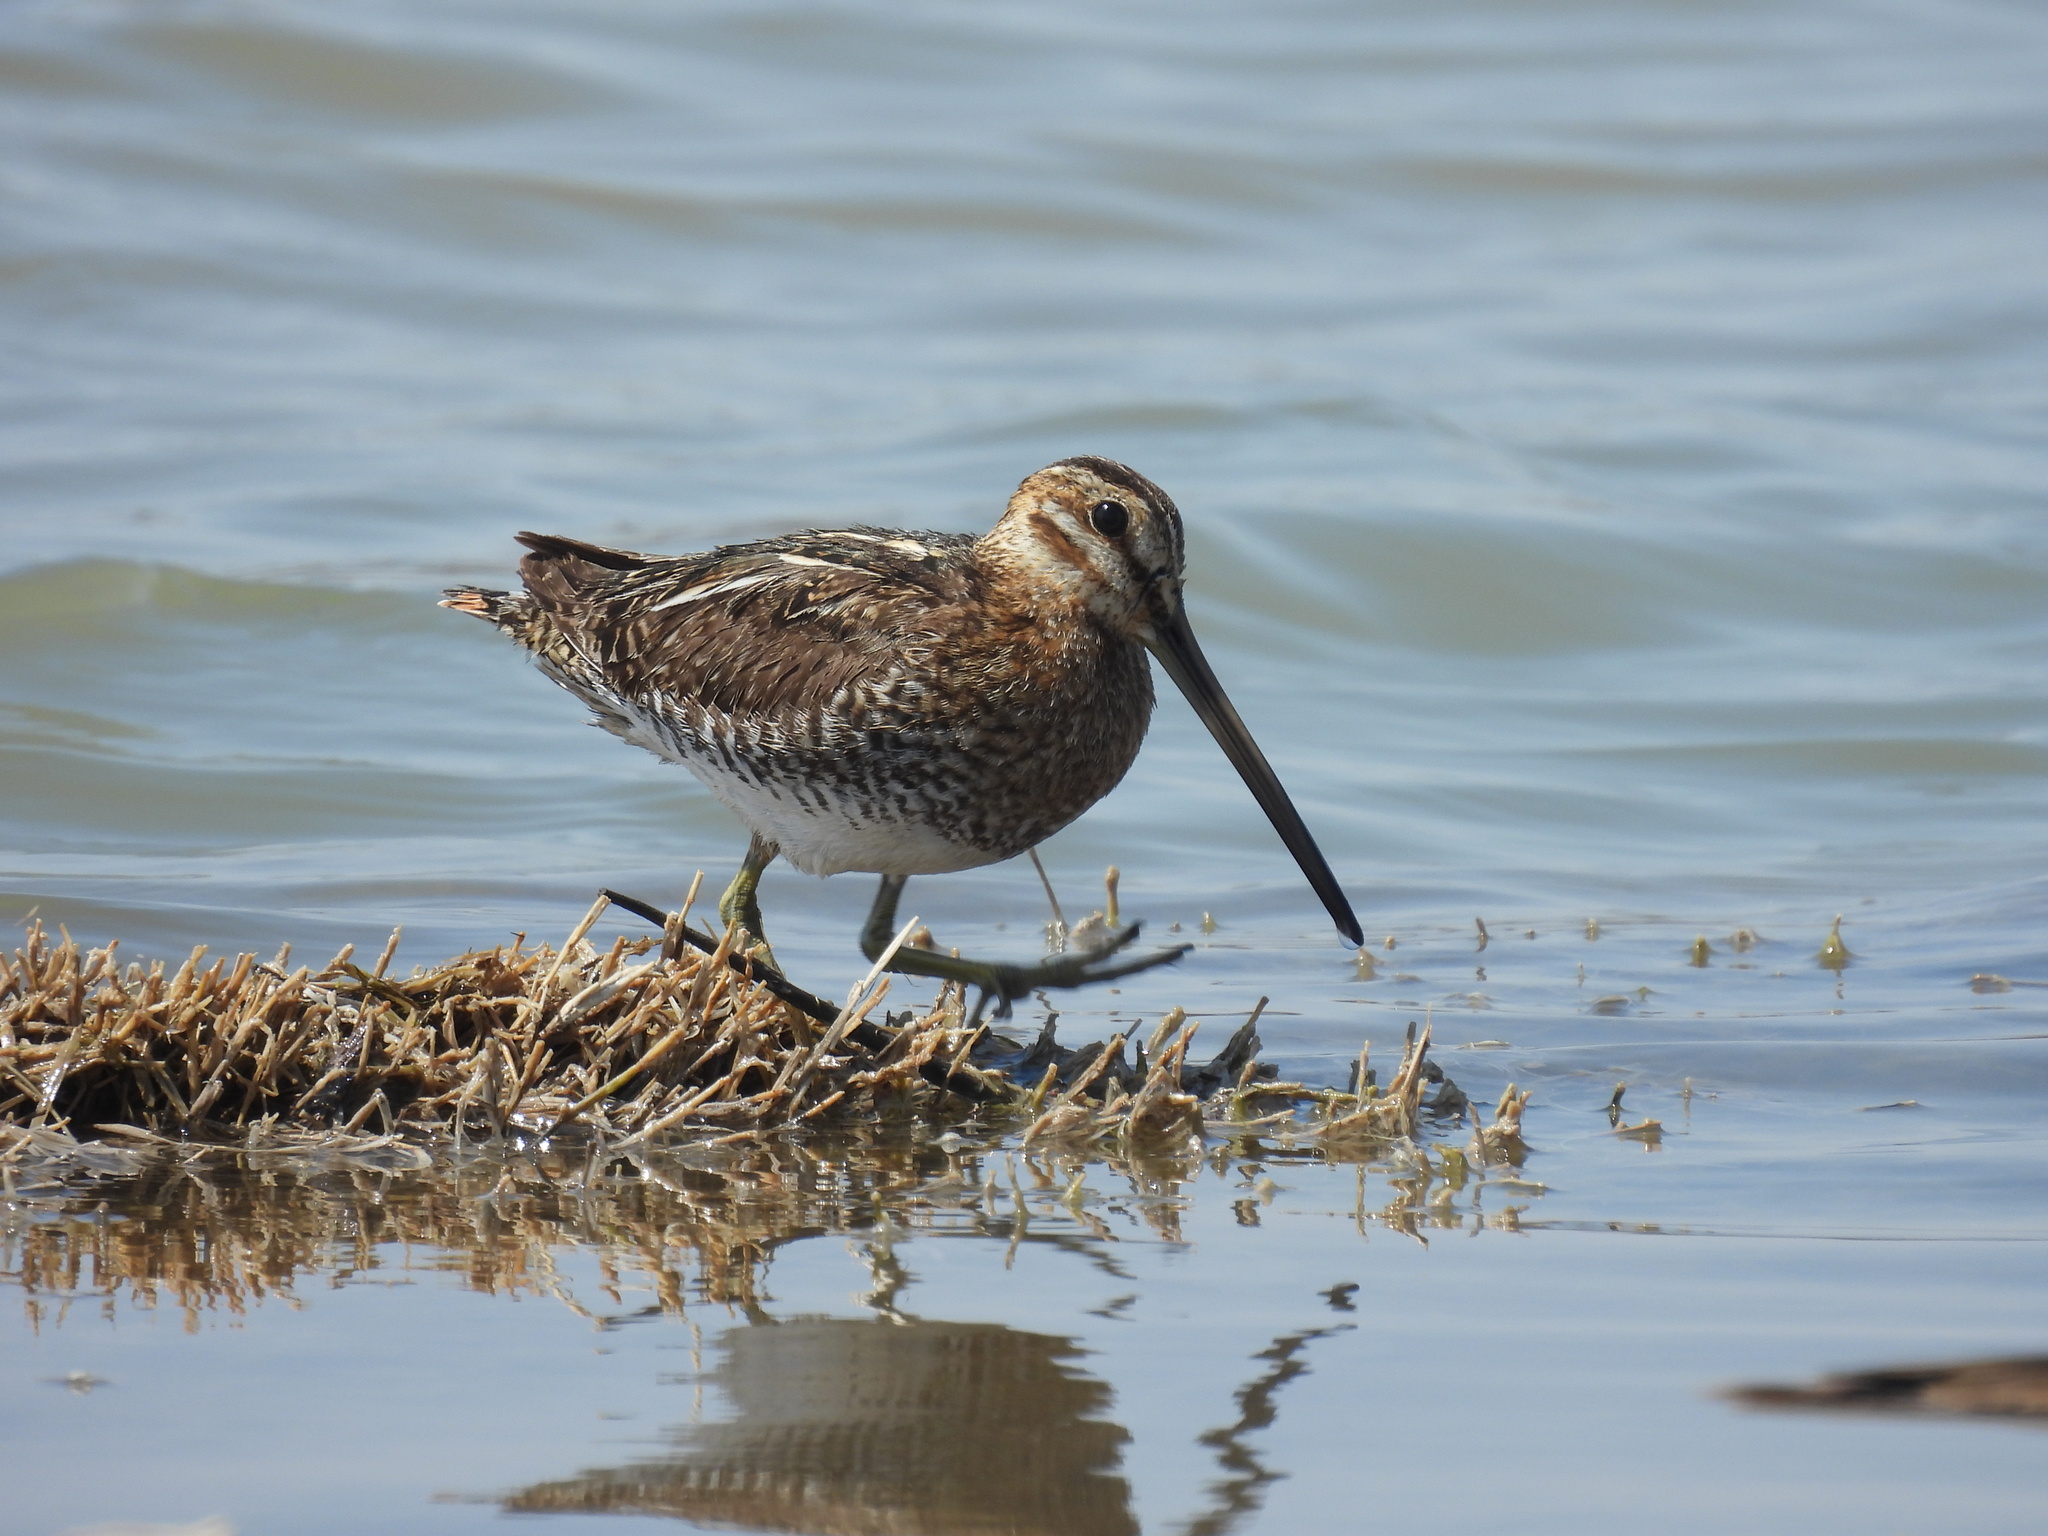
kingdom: Animalia
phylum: Chordata
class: Aves
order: Charadriiformes
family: Scolopacidae
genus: Gallinago
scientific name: Gallinago delicata
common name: Wilson's snipe
